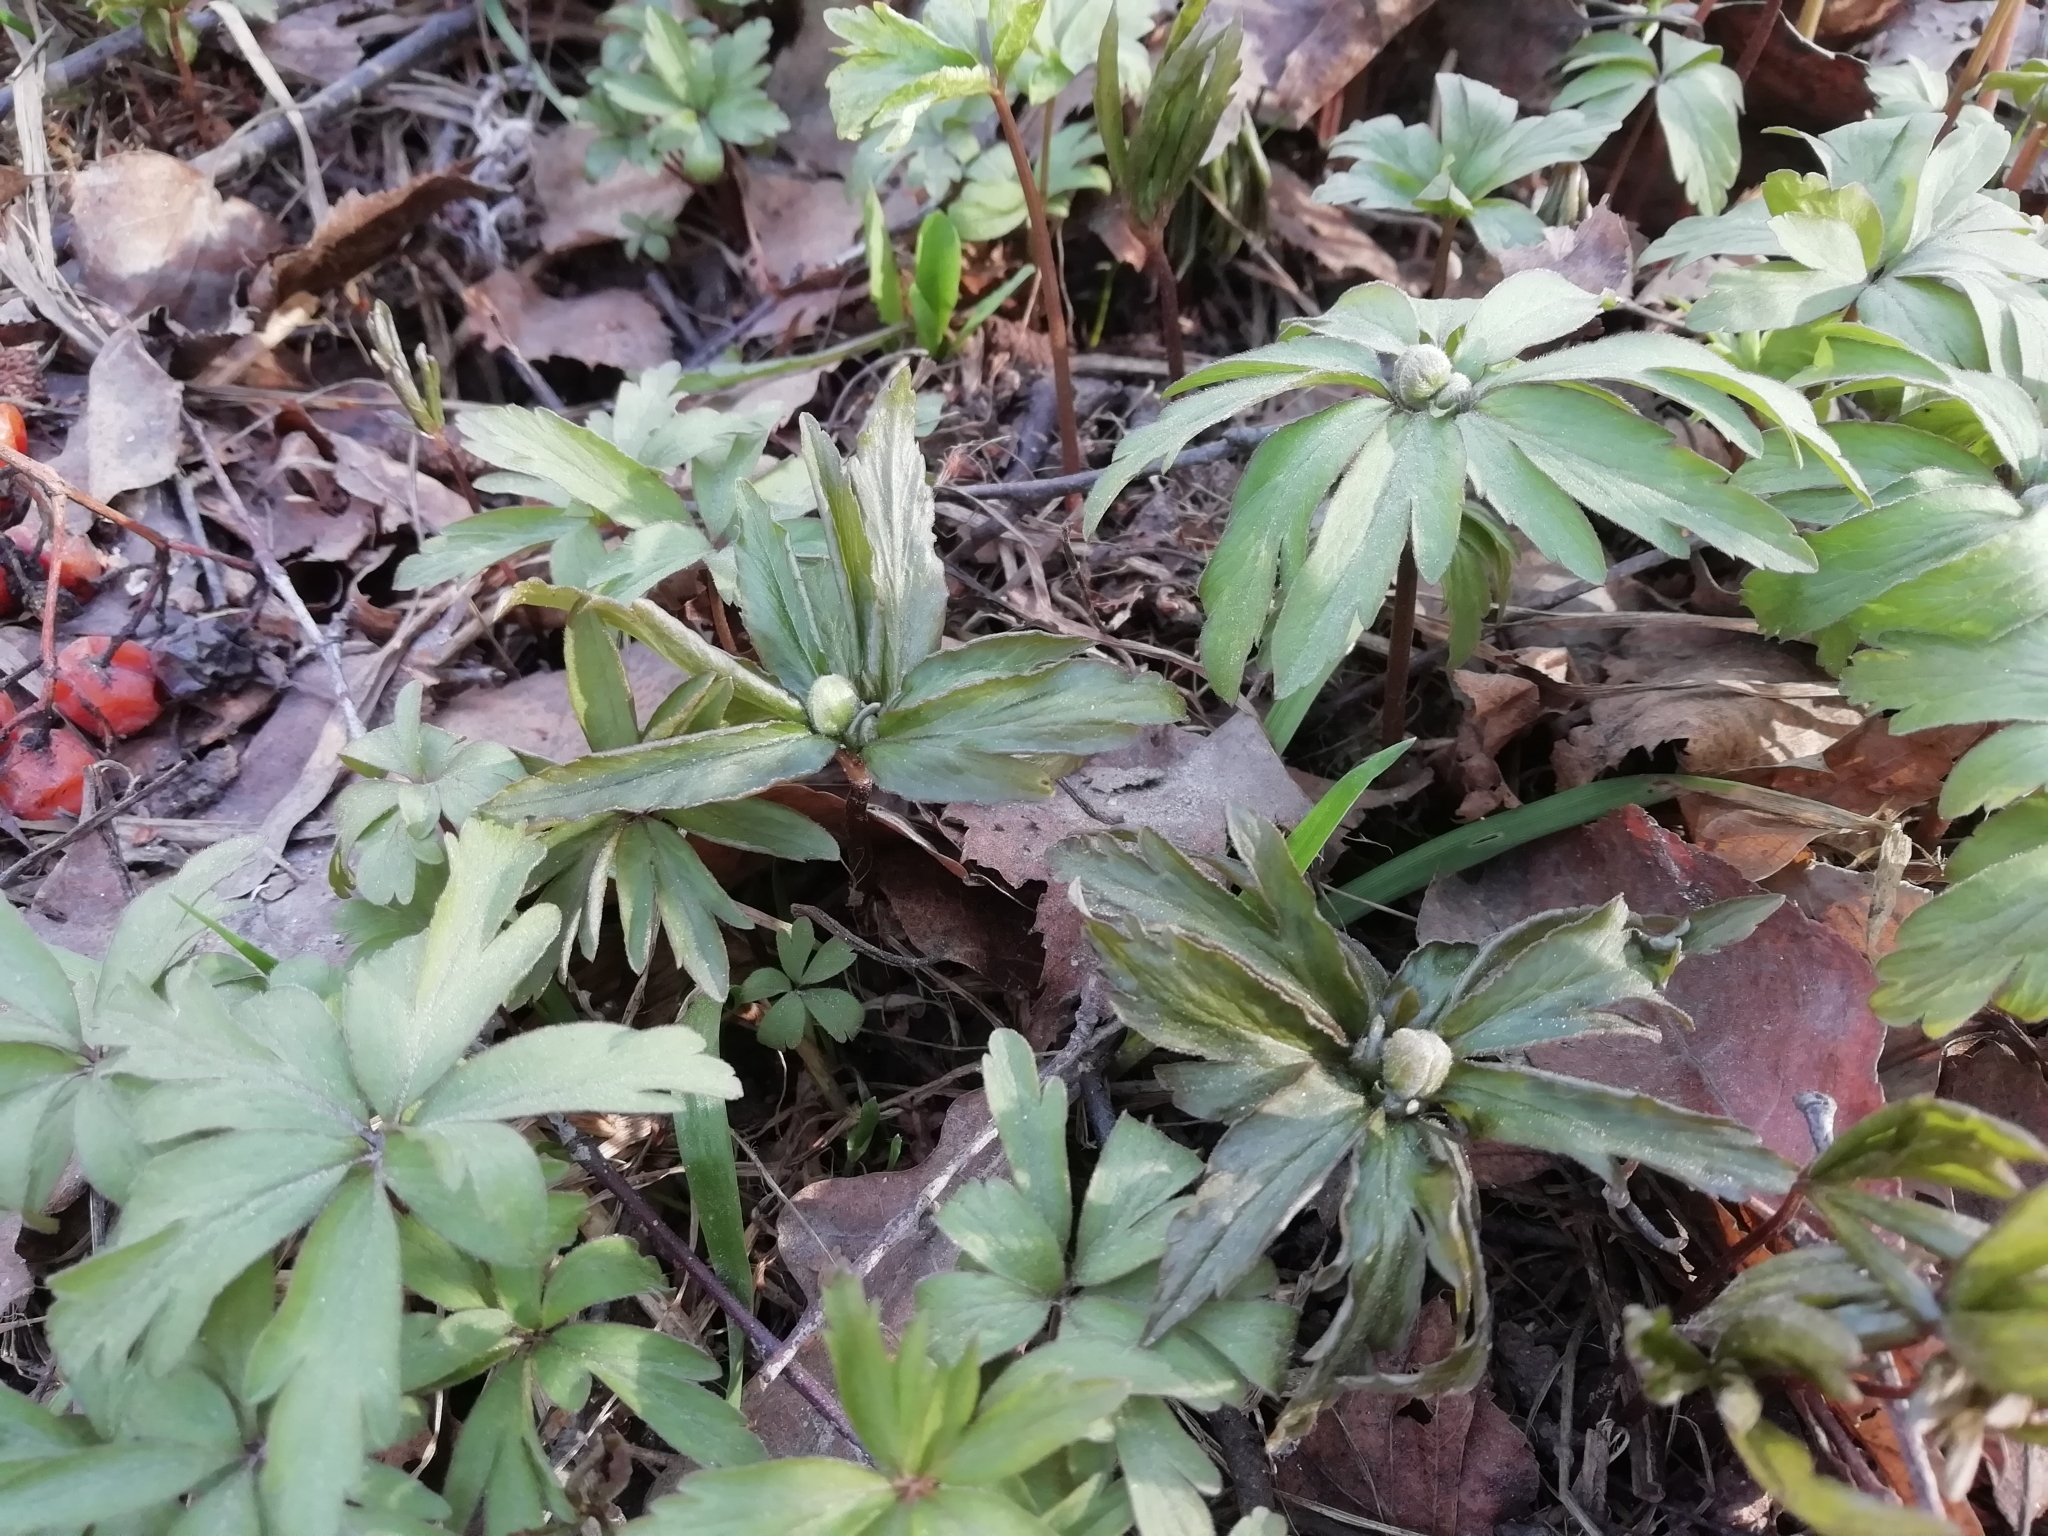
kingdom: Plantae
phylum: Tracheophyta
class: Magnoliopsida
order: Ranunculales
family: Ranunculaceae
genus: Anemone
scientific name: Anemone ranunculoides
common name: Yellow anemone
